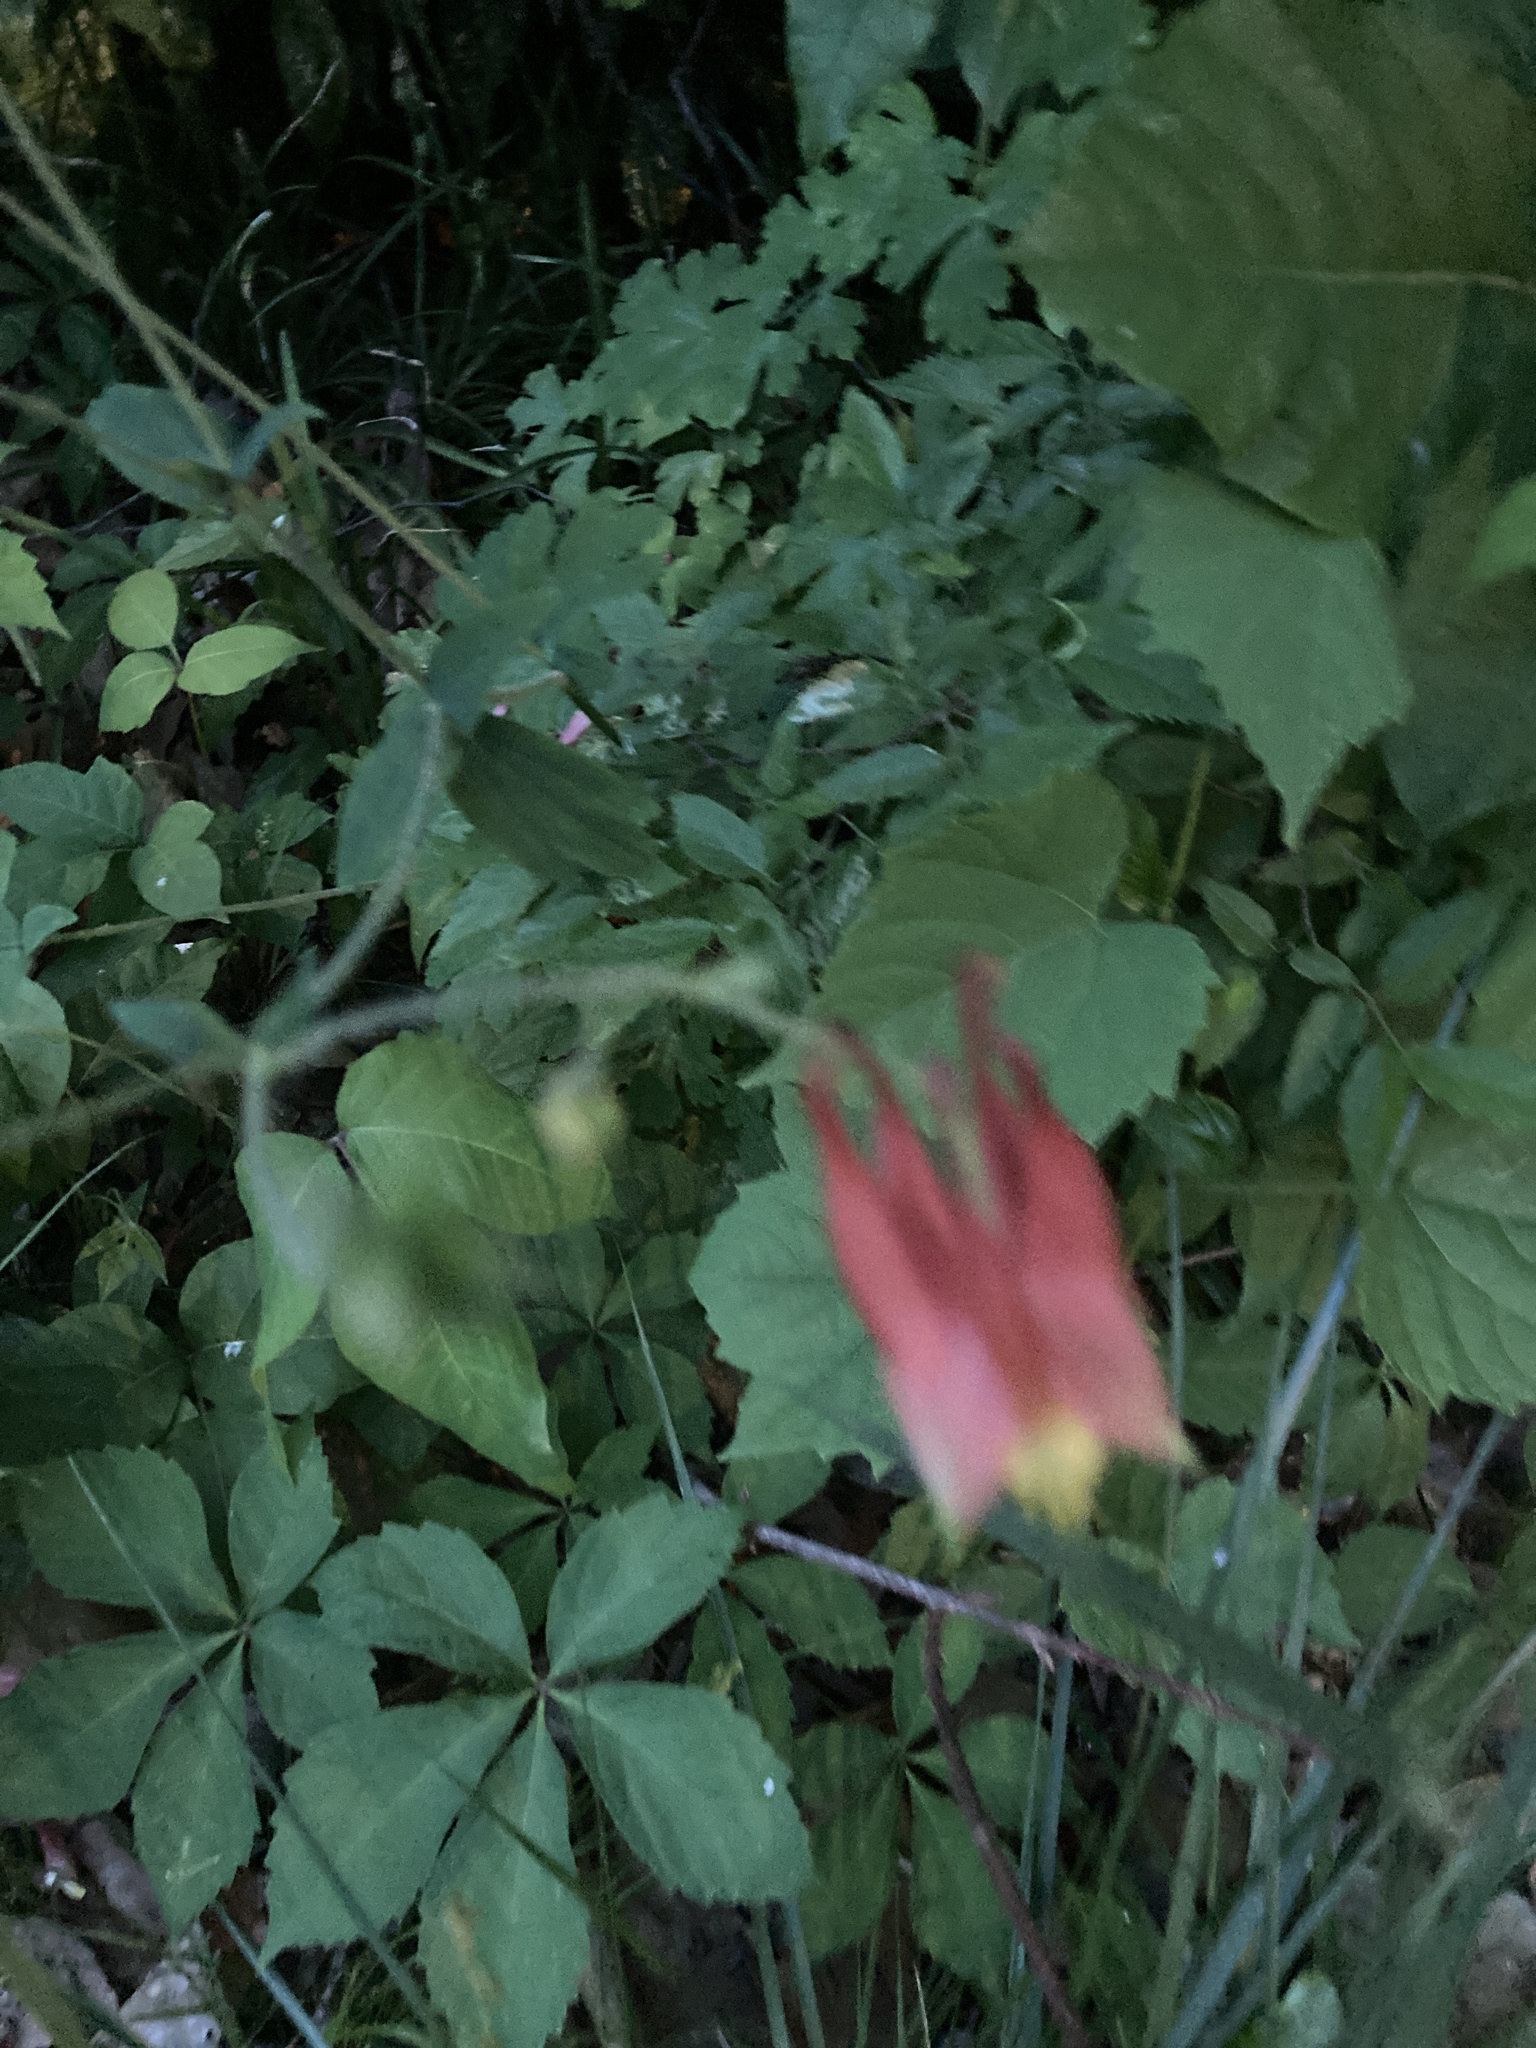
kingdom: Plantae
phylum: Tracheophyta
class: Magnoliopsida
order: Ranunculales
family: Ranunculaceae
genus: Aquilegia
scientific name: Aquilegia canadensis
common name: American columbine
